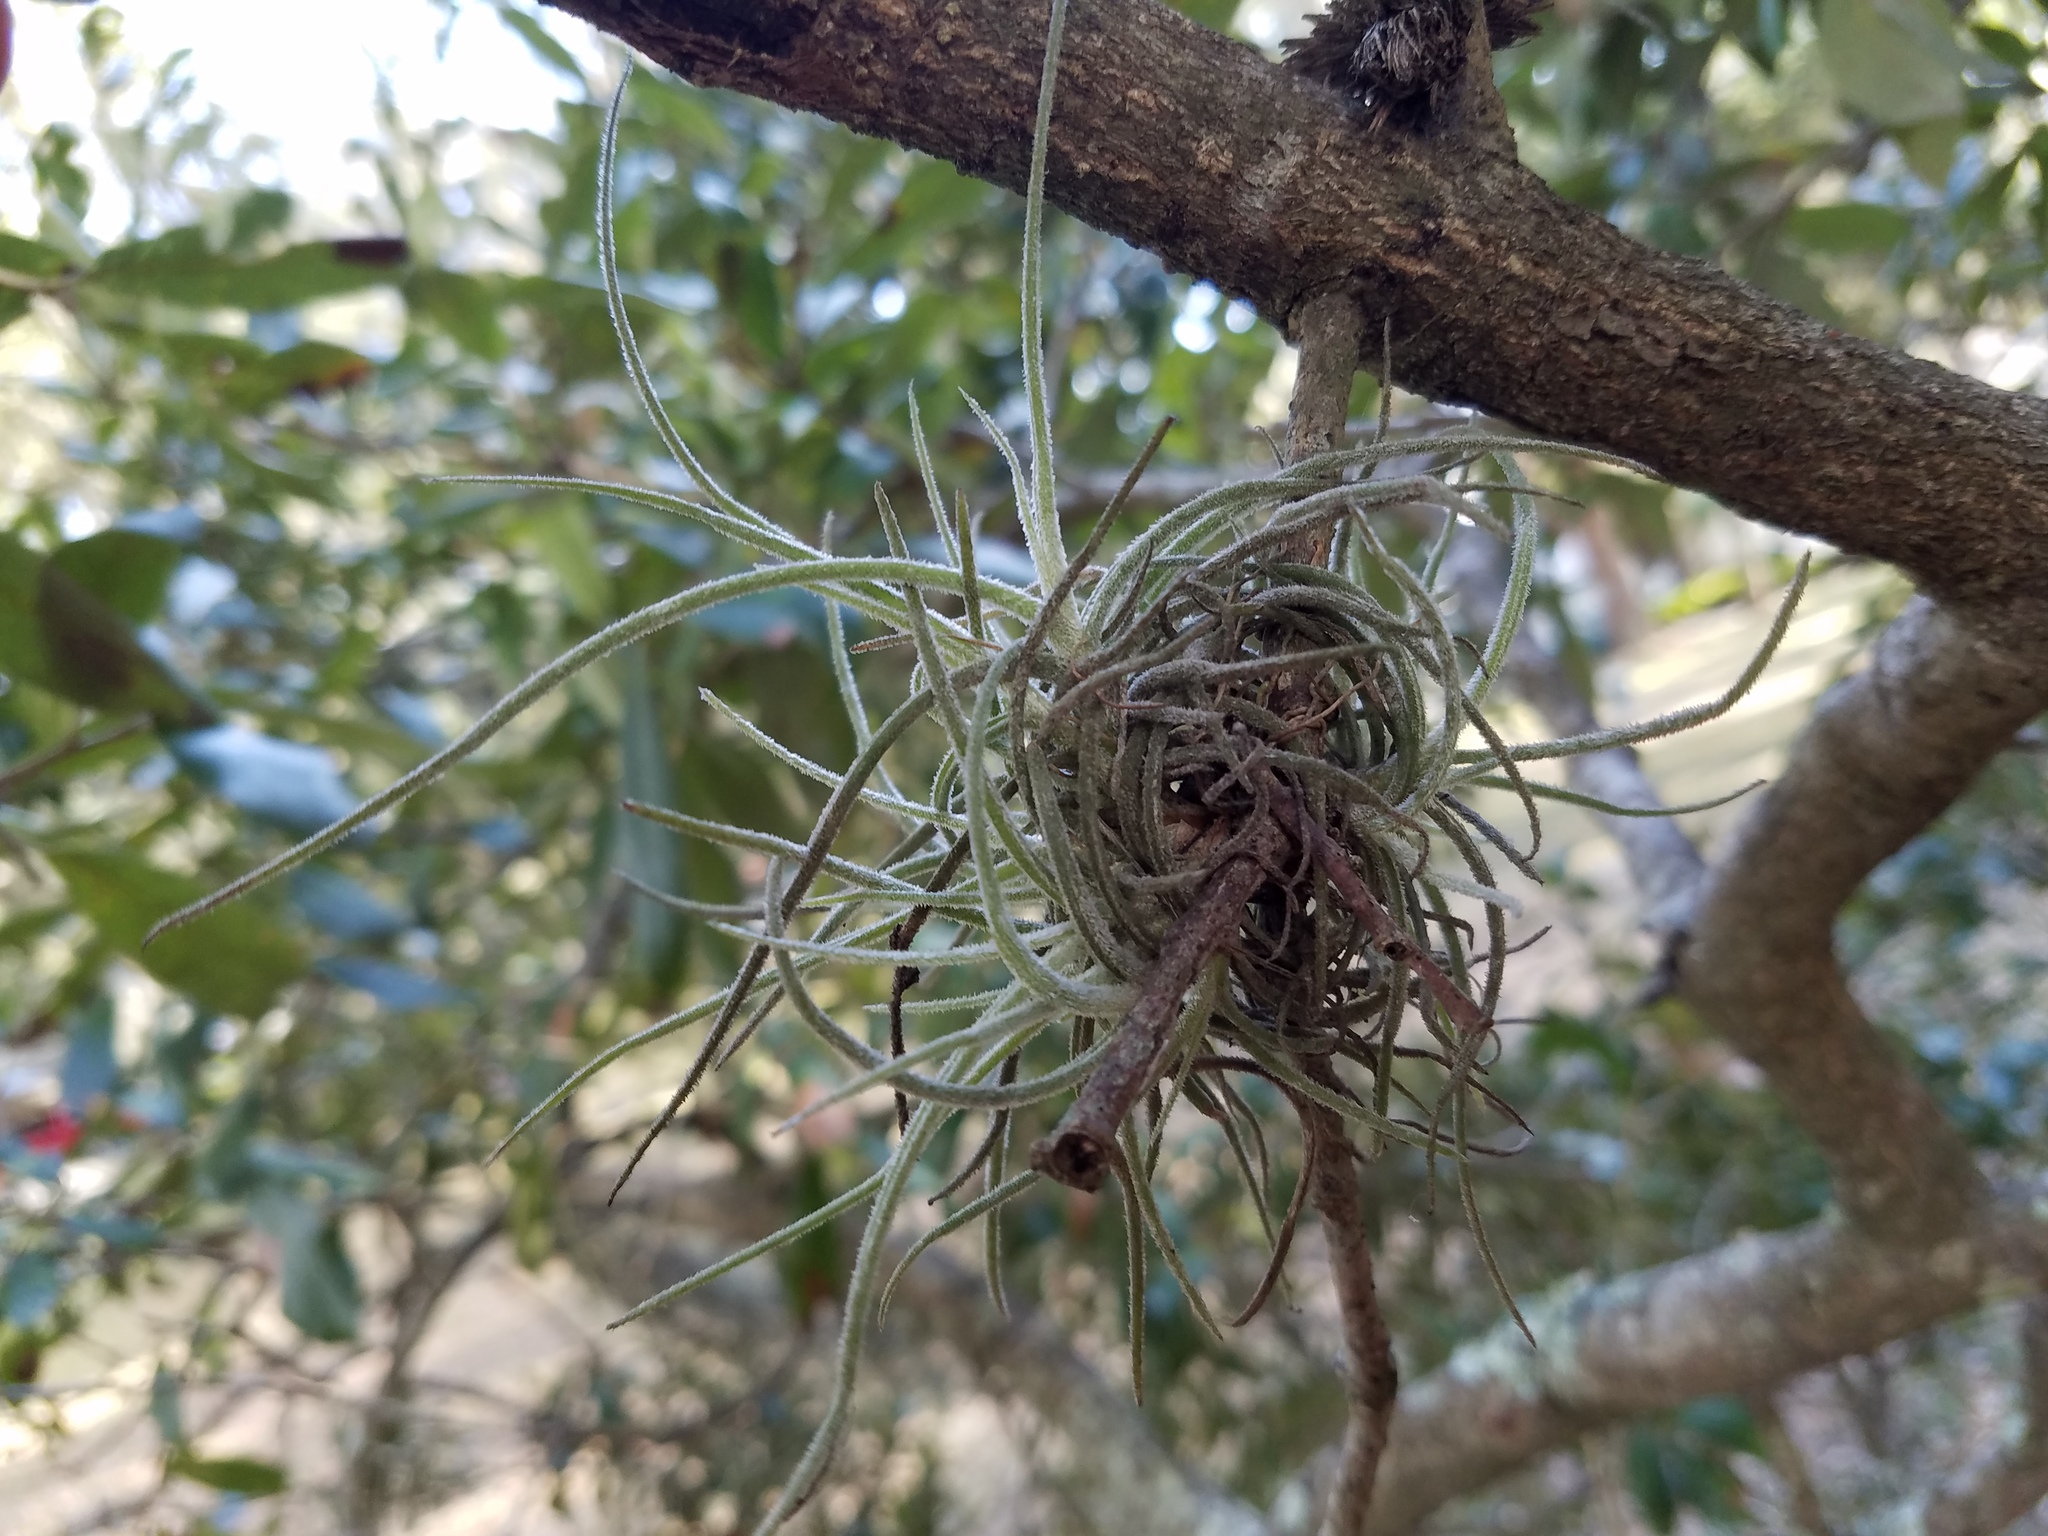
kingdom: Plantae
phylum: Tracheophyta
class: Liliopsida
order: Poales
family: Bromeliaceae
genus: Tillandsia
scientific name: Tillandsia recurvata
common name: Small ballmoss
